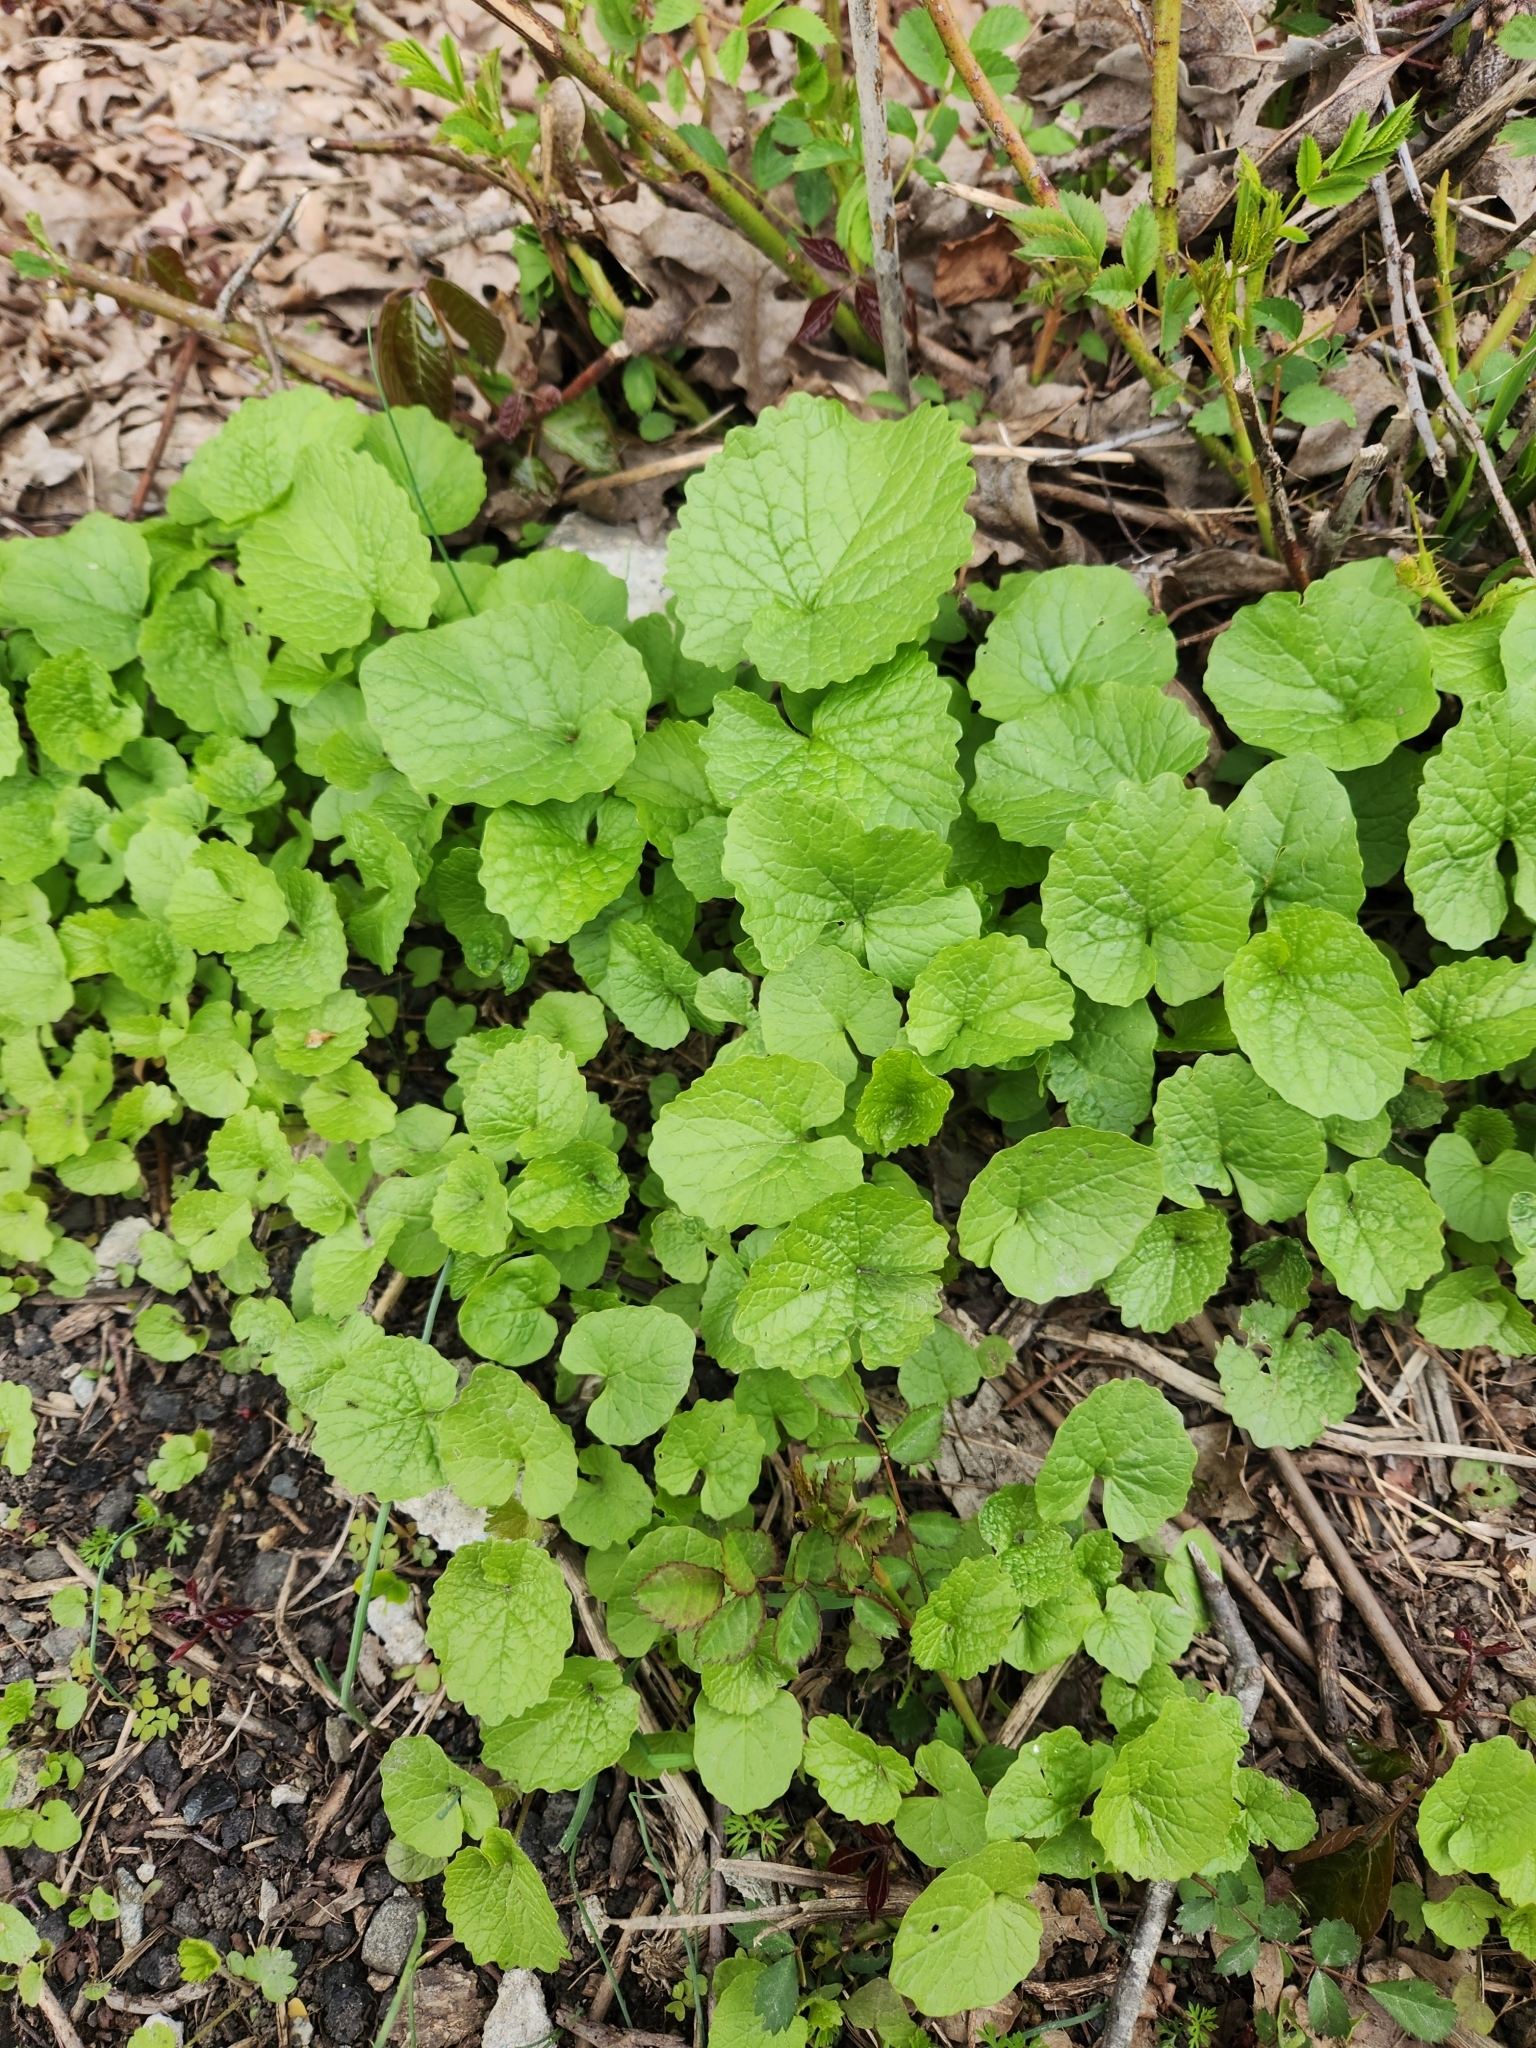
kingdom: Plantae
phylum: Tracheophyta
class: Magnoliopsida
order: Brassicales
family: Brassicaceae
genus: Alliaria
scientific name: Alliaria petiolata
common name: Garlic mustard
